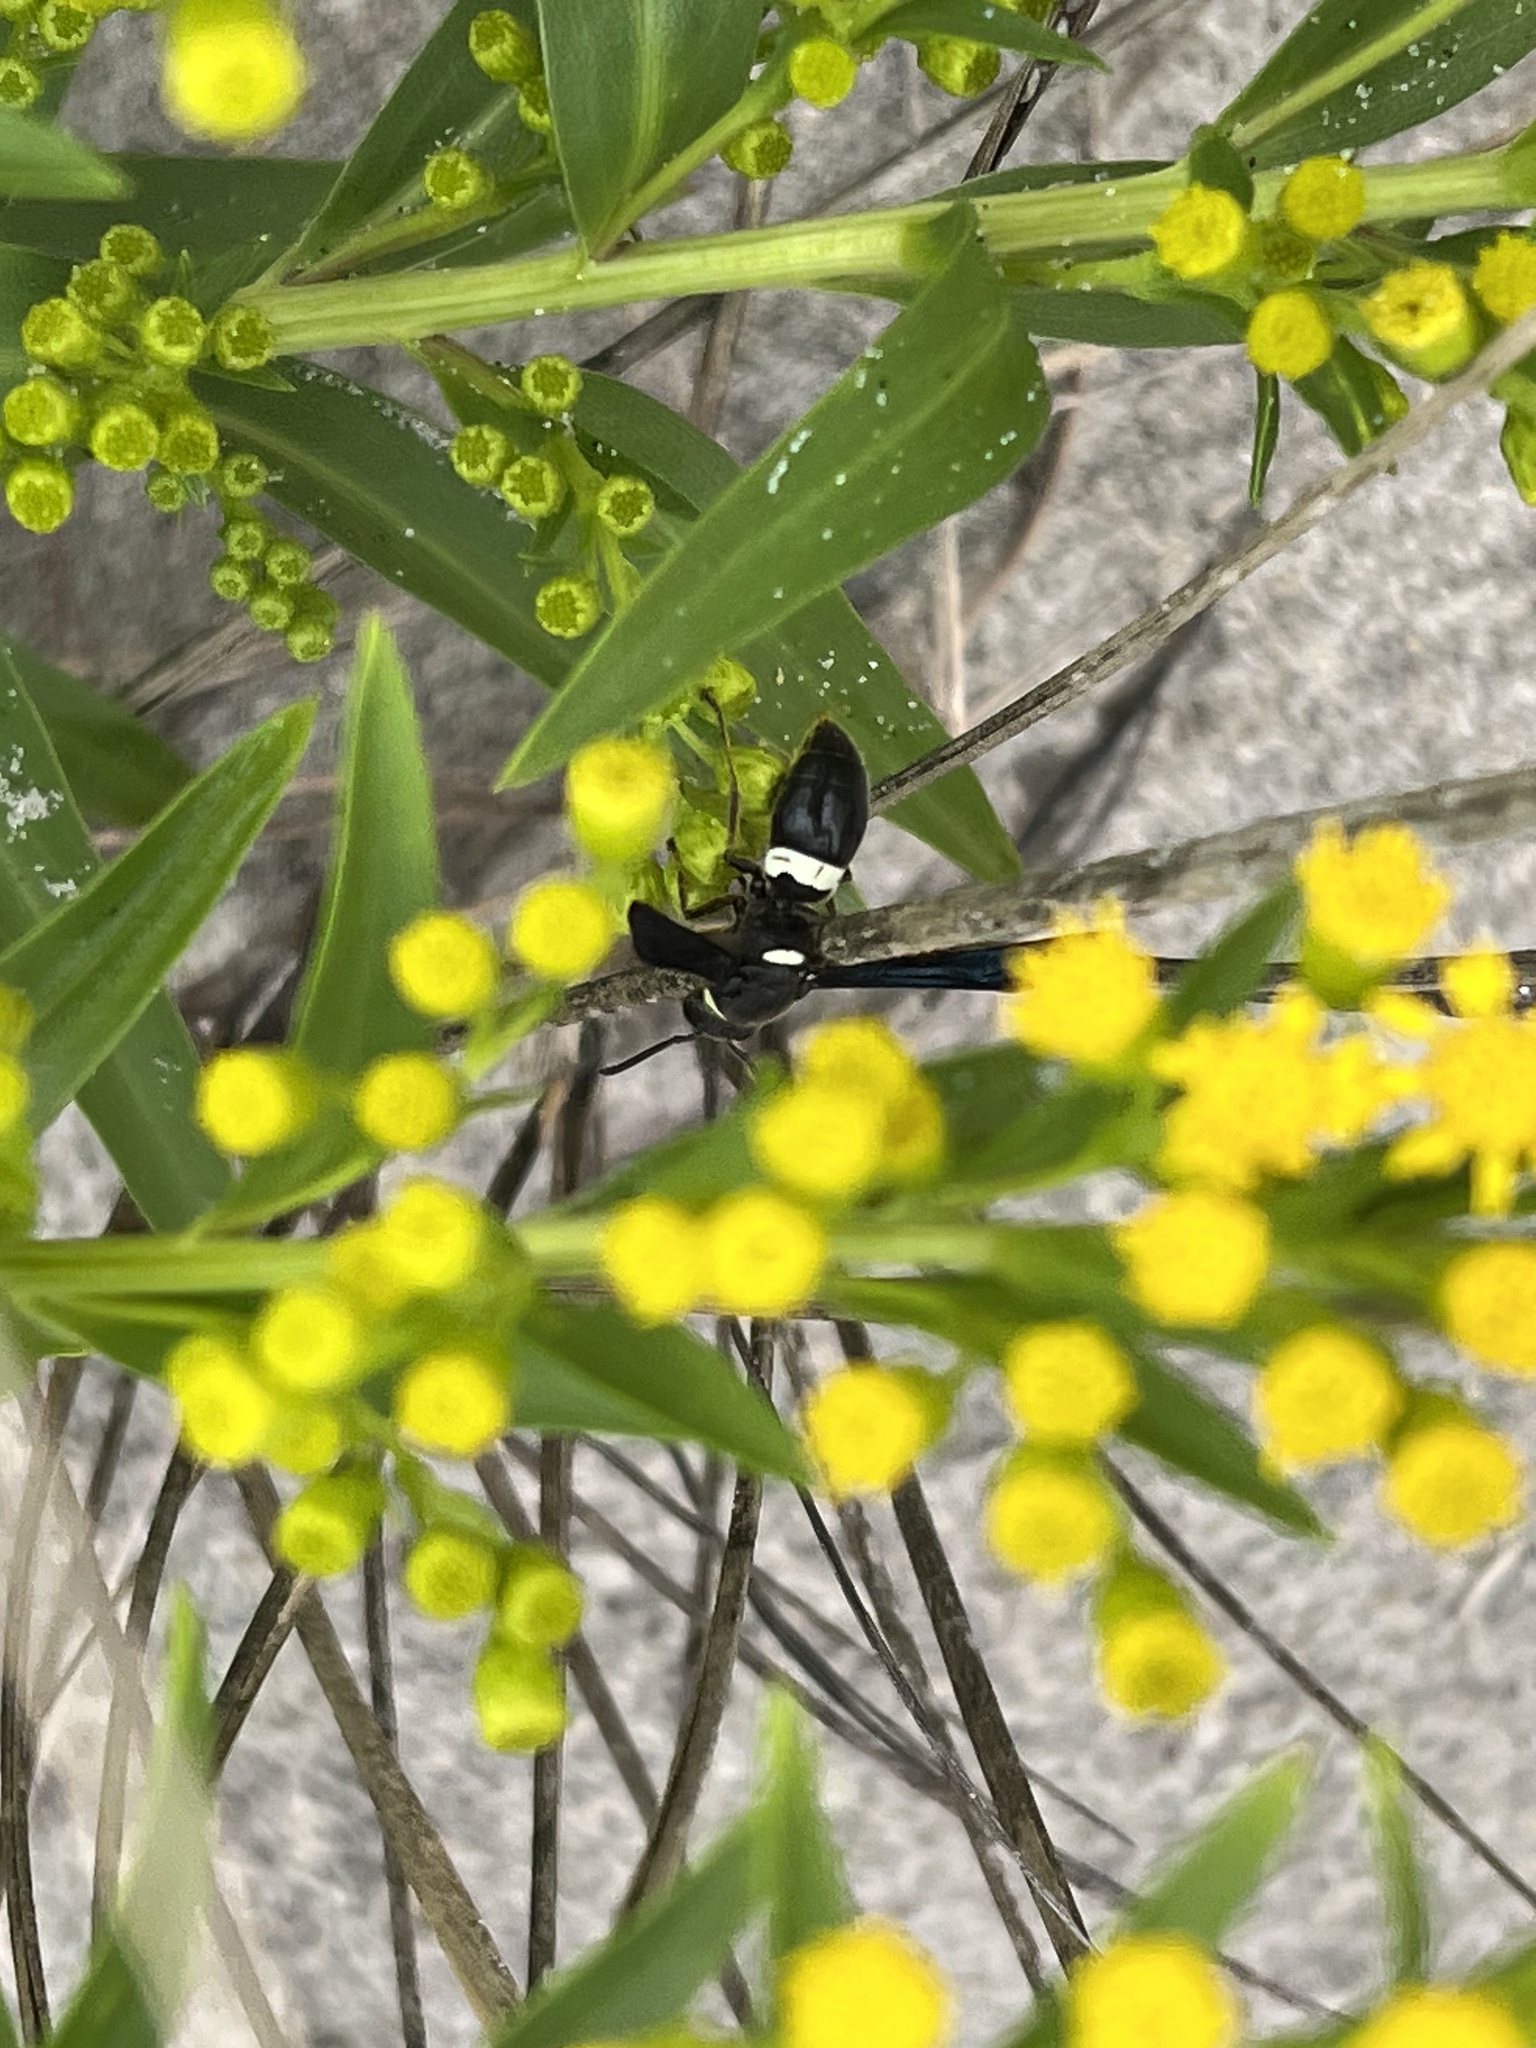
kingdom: Animalia
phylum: Arthropoda
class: Insecta
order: Hymenoptera
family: Eumenidae
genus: Monobia
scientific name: Monobia quadridens
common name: Four-toothed mason wasp
